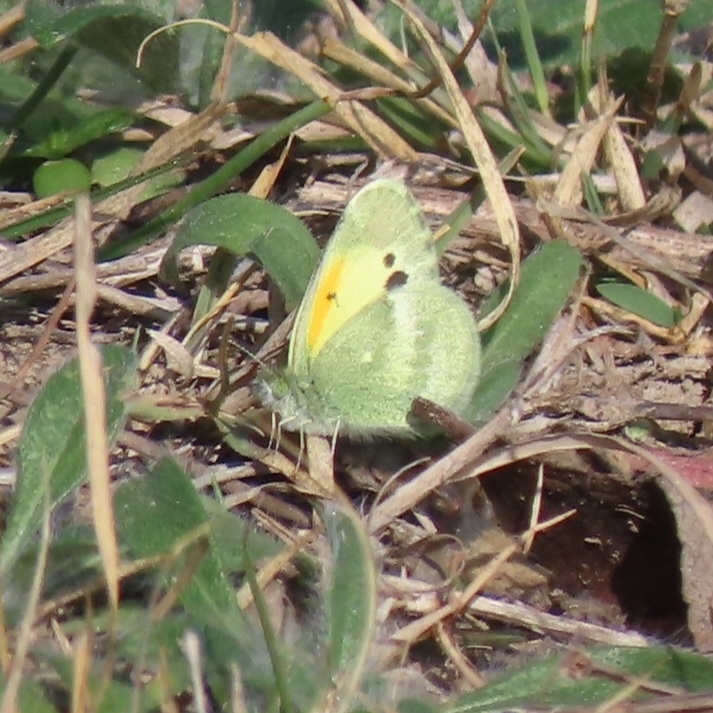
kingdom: Animalia
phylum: Arthropoda
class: Insecta
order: Lepidoptera
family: Pieridae
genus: Nathalis
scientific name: Nathalis iole
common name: Dainty sulphur
